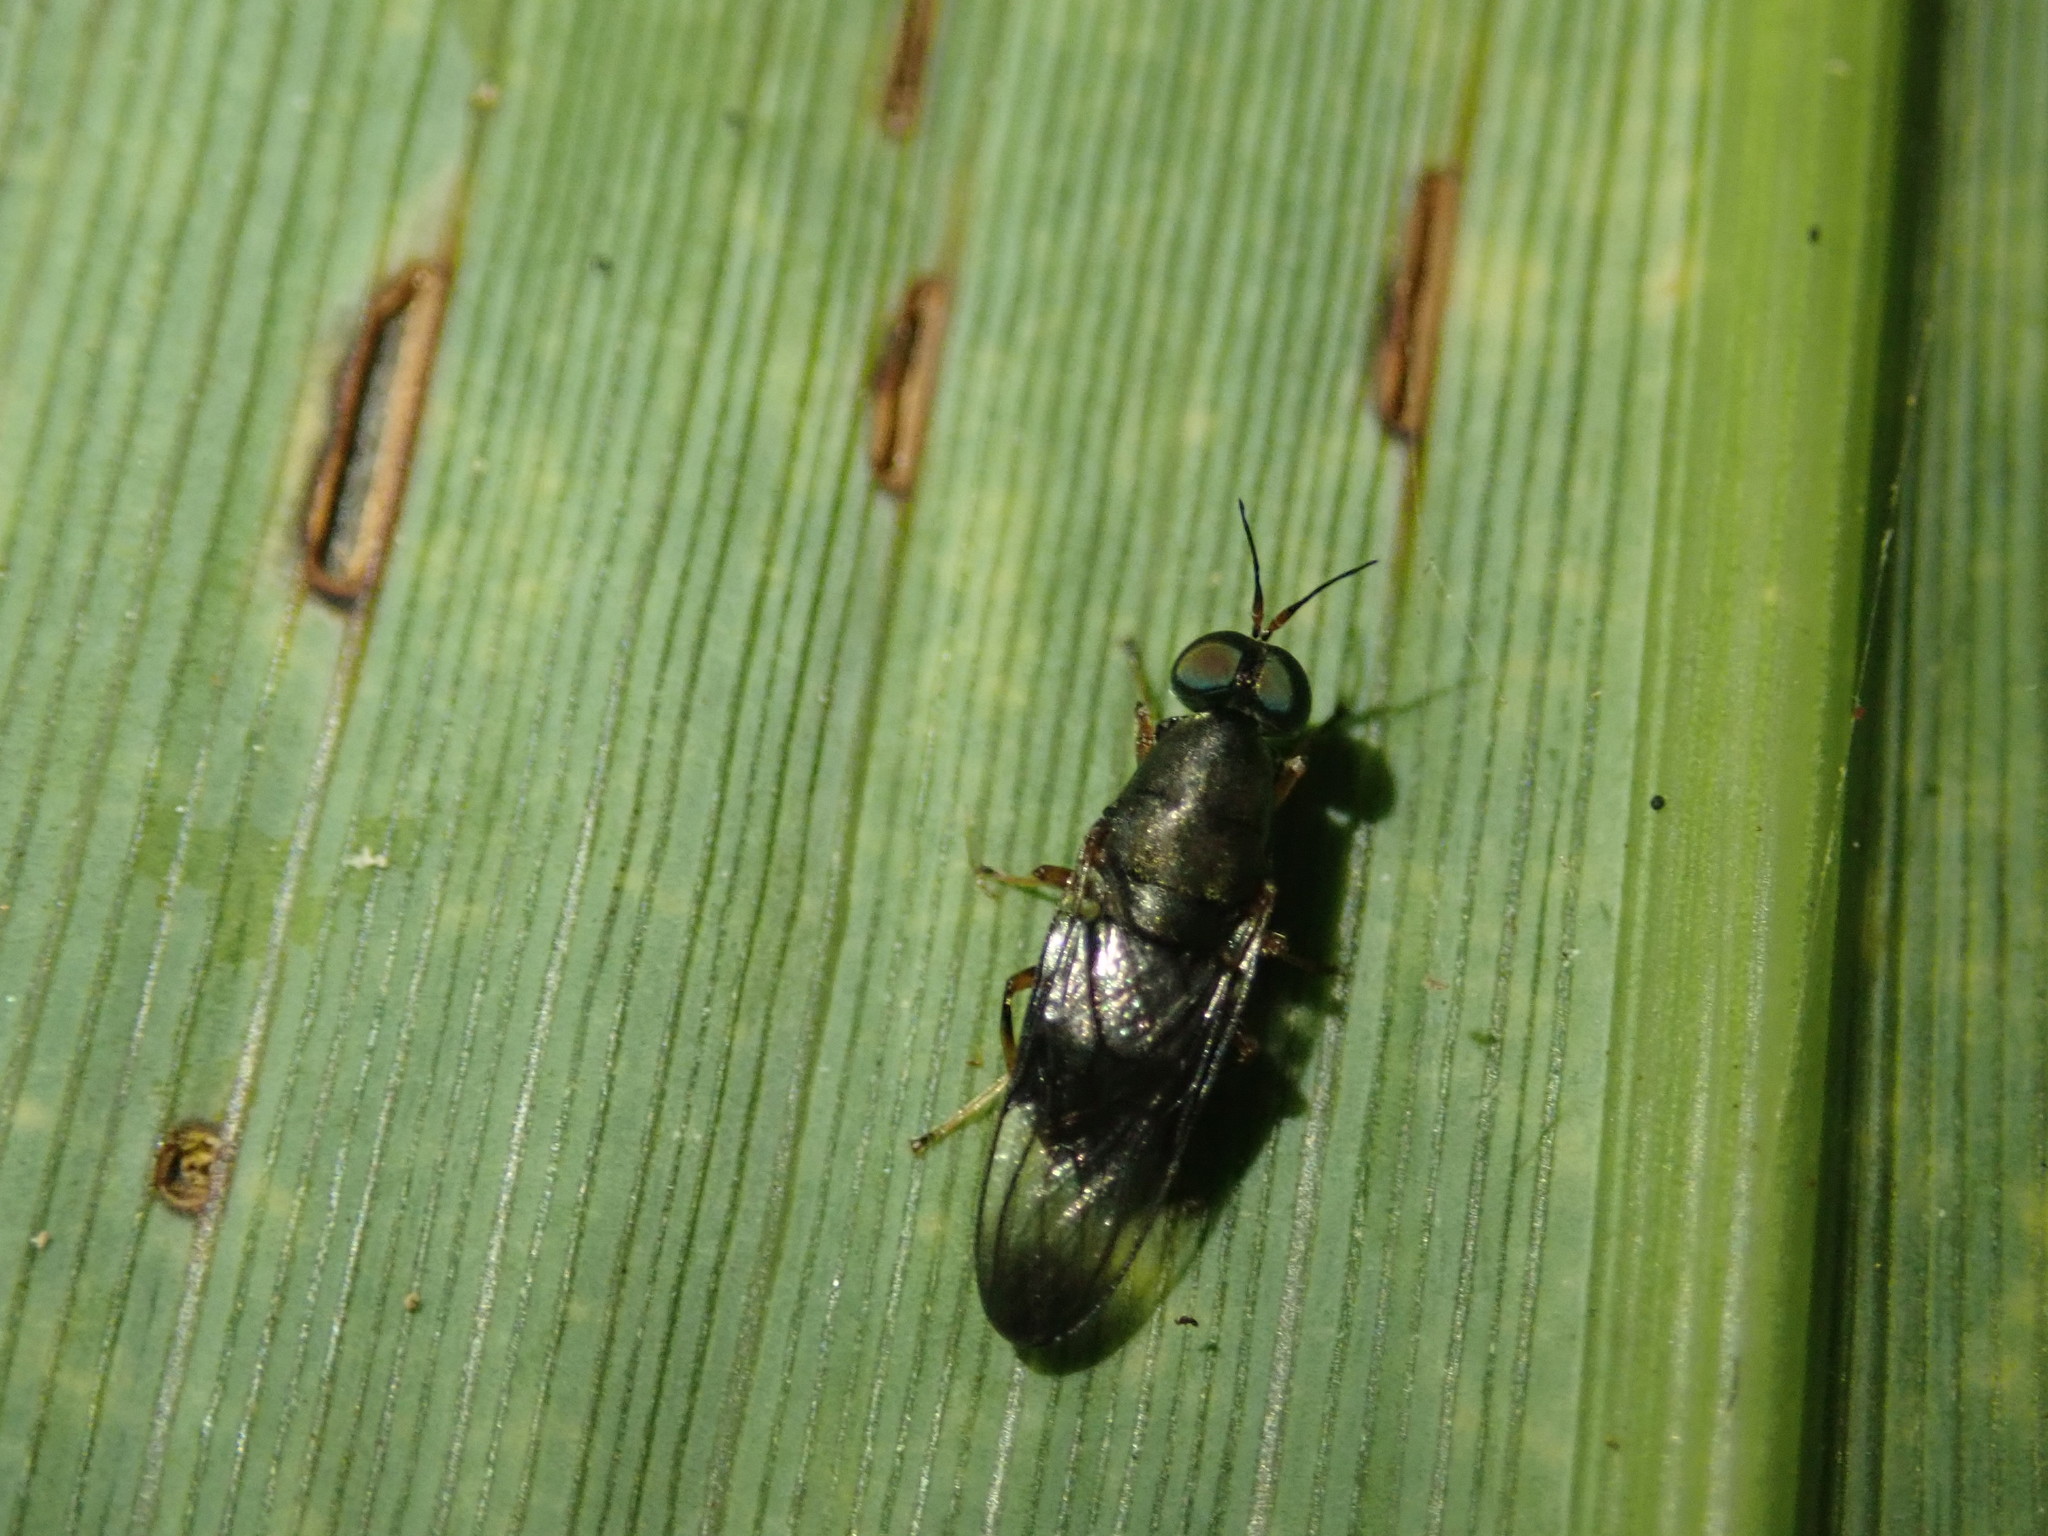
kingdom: Animalia
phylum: Arthropoda
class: Insecta
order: Diptera
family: Stratiomyidae
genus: Dysbiota
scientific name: Dysbiota peregrina
